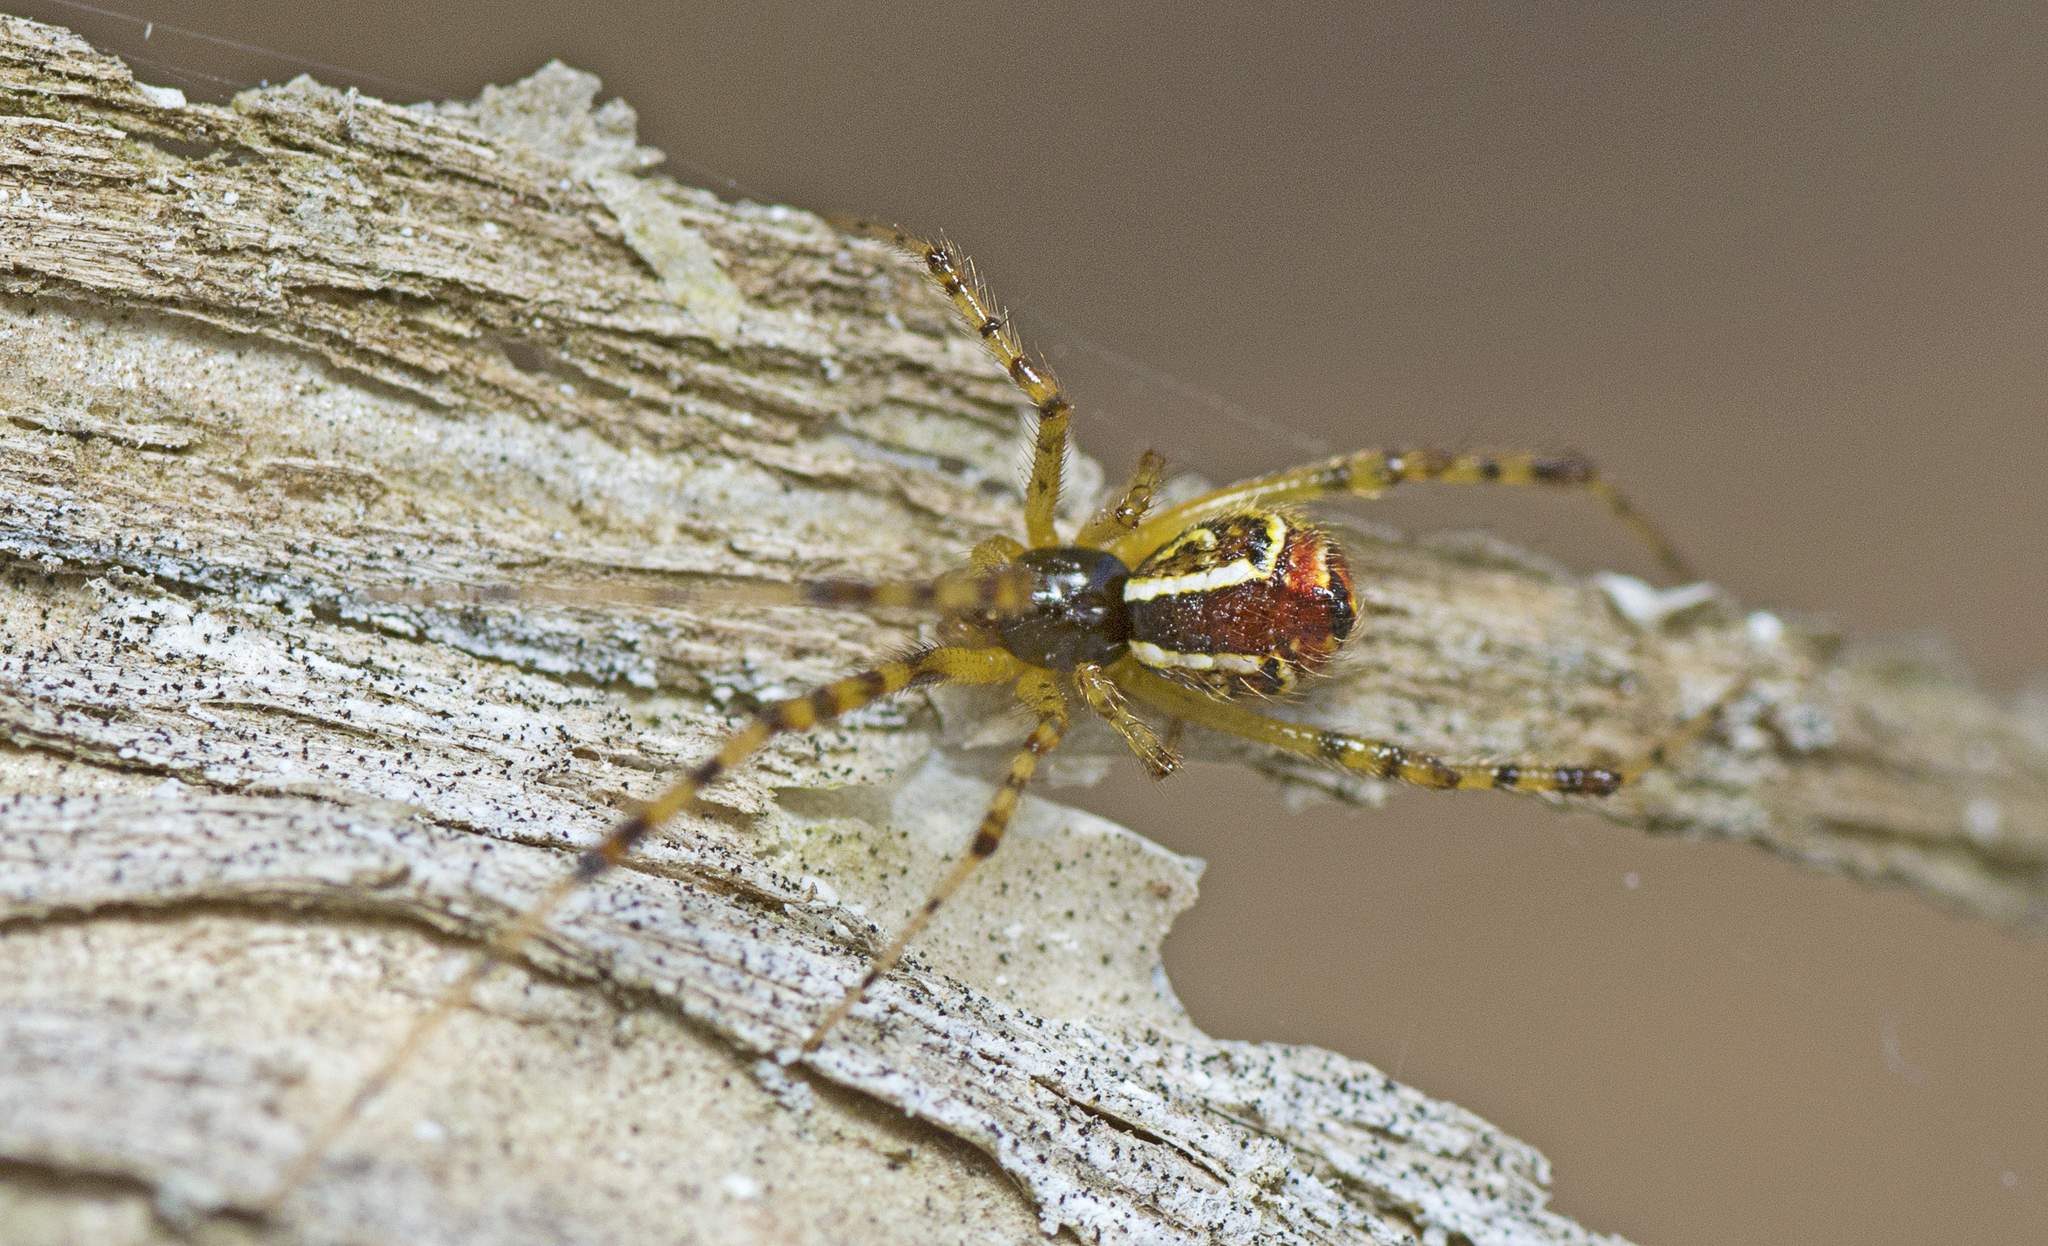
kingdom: Animalia
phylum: Arthropoda
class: Arachnida
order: Araneae
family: Theridiidae
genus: Theridion
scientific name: Theridion pyramidale
